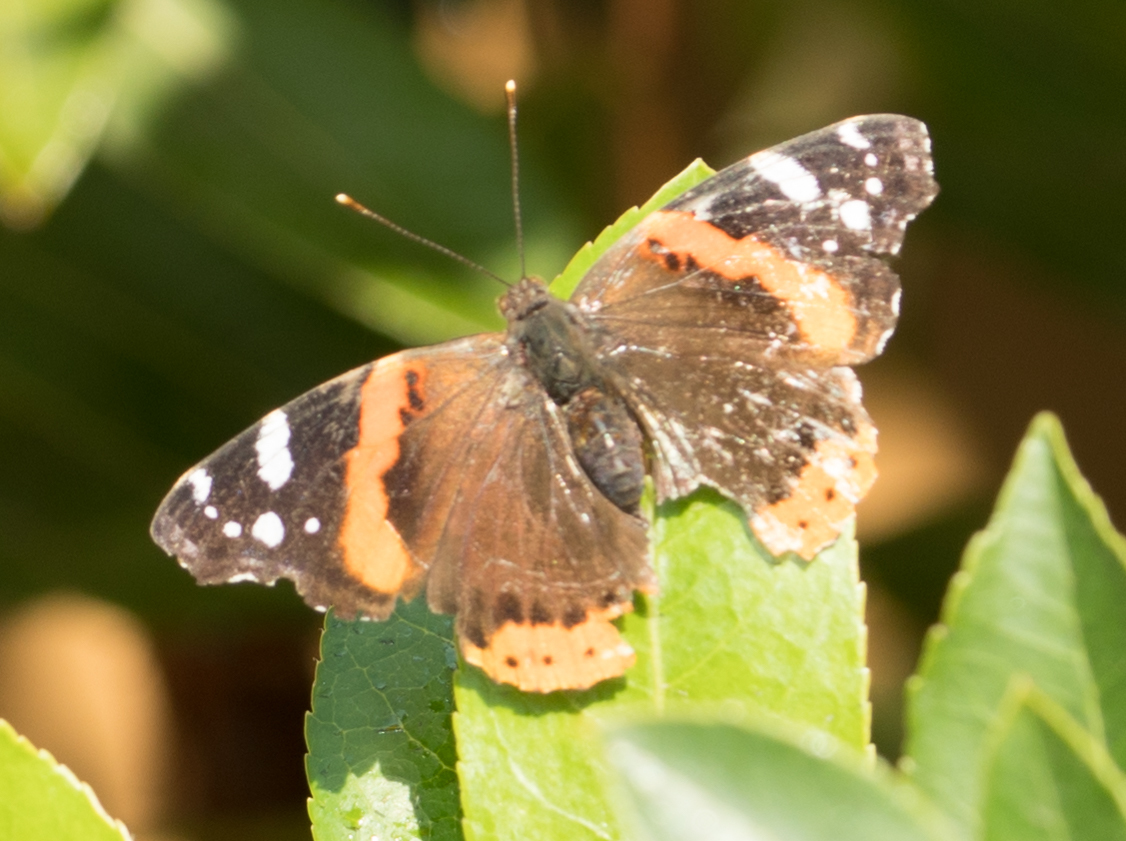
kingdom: Animalia
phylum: Arthropoda
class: Insecta
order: Lepidoptera
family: Nymphalidae
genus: Vanessa
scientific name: Vanessa atalanta
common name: Red admiral
